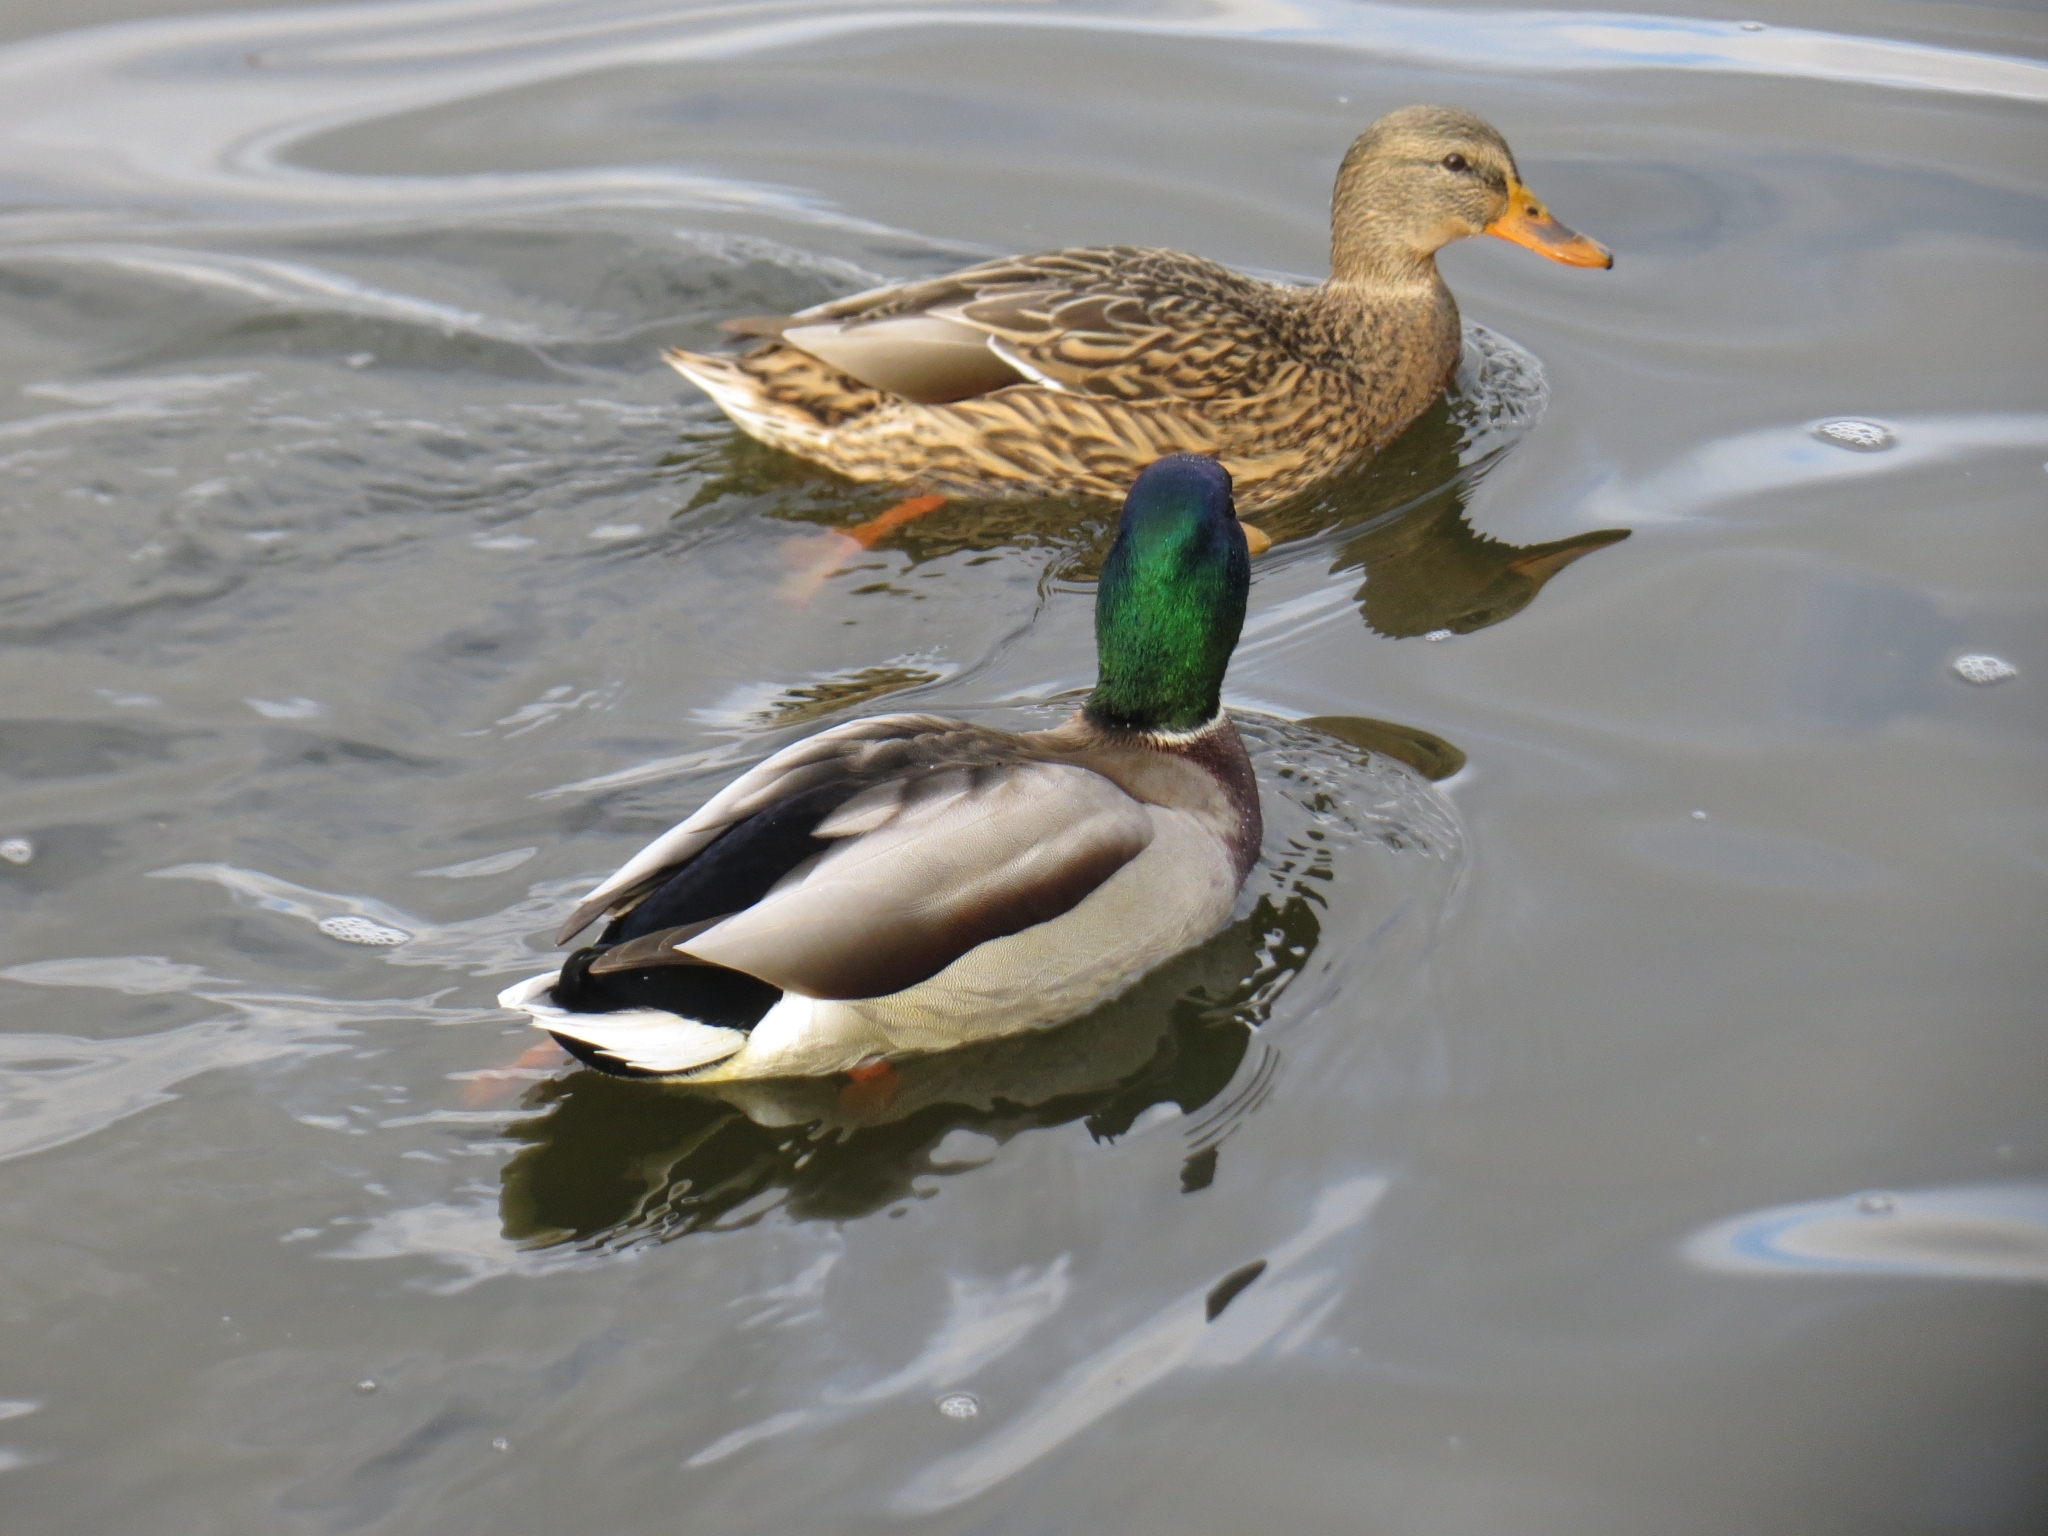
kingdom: Animalia
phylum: Chordata
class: Aves
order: Anseriformes
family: Anatidae
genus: Anas
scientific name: Anas platyrhynchos
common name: Mallard
